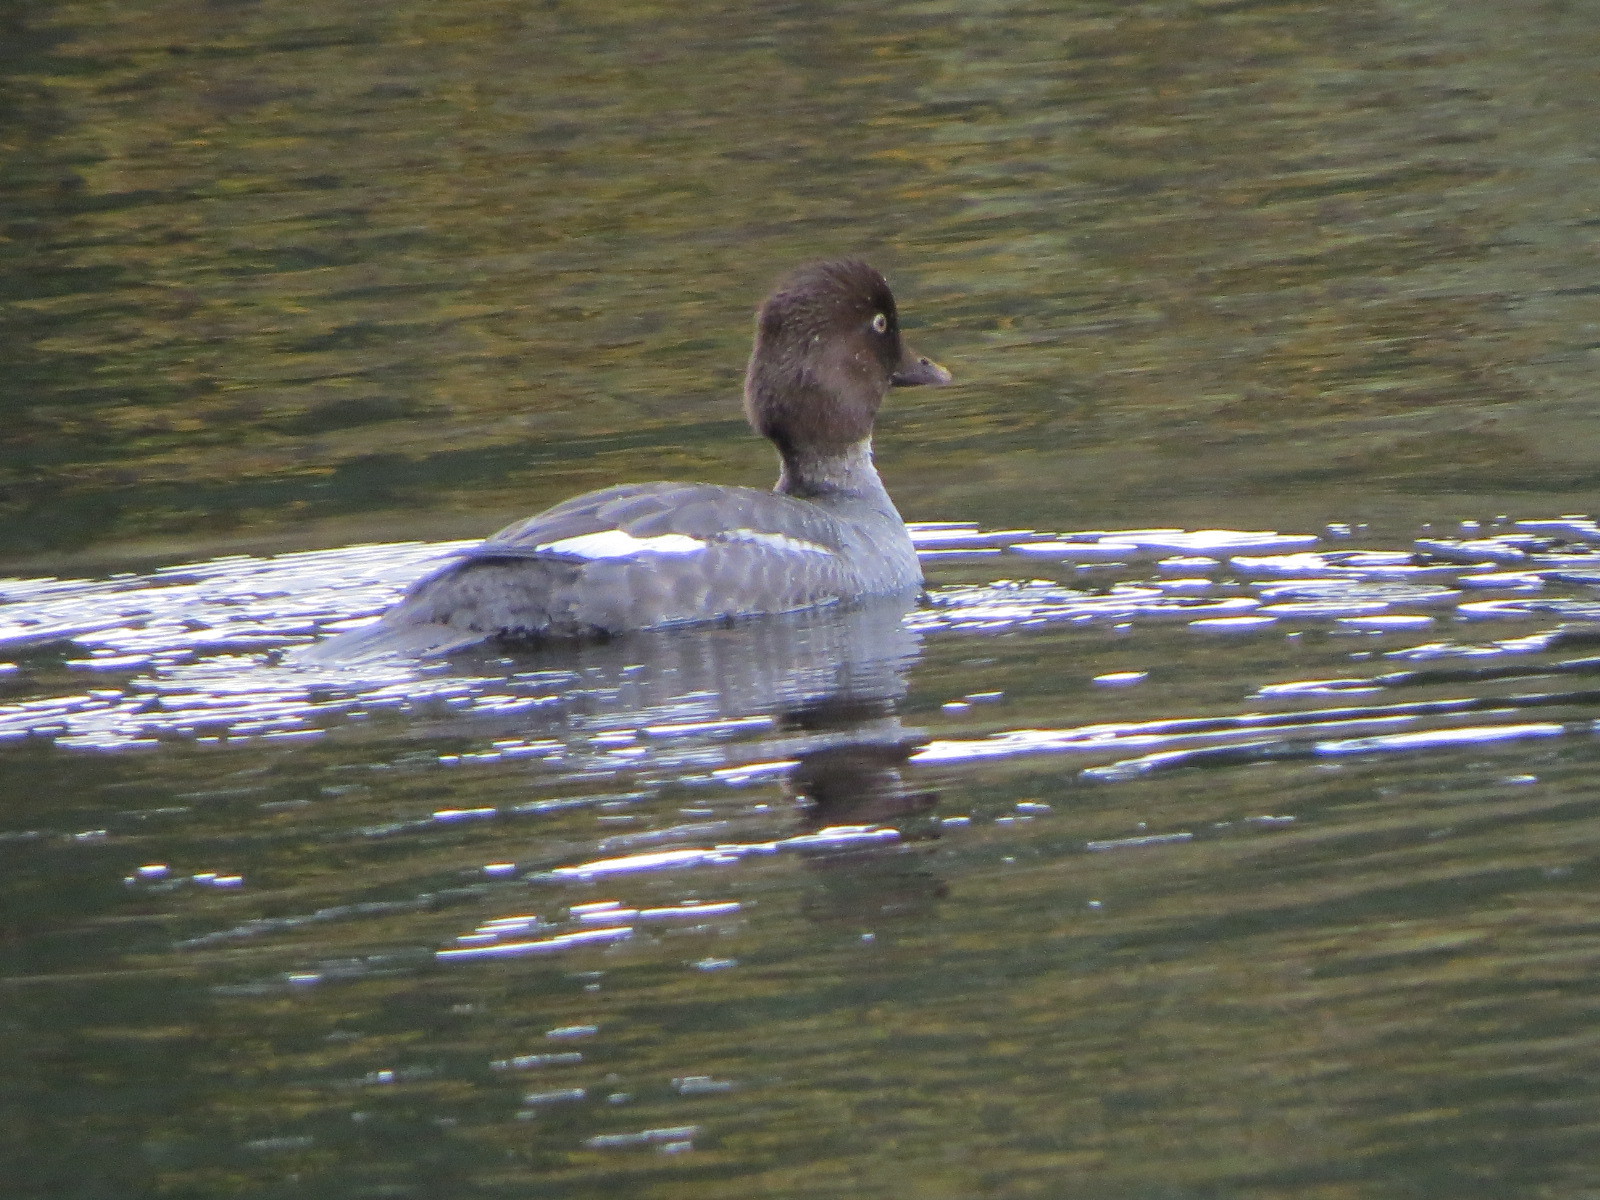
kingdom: Animalia
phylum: Chordata
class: Aves
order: Anseriformes
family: Anatidae
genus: Bucephala
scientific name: Bucephala clangula
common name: Common goldeneye
